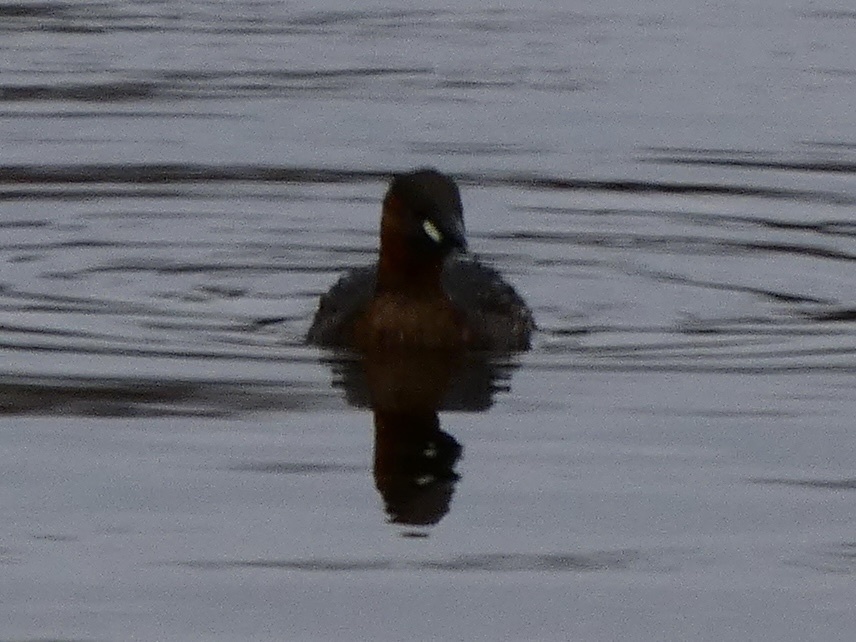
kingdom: Animalia
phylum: Chordata
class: Aves
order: Podicipediformes
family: Podicipedidae
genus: Tachybaptus
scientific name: Tachybaptus ruficollis
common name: Little grebe
